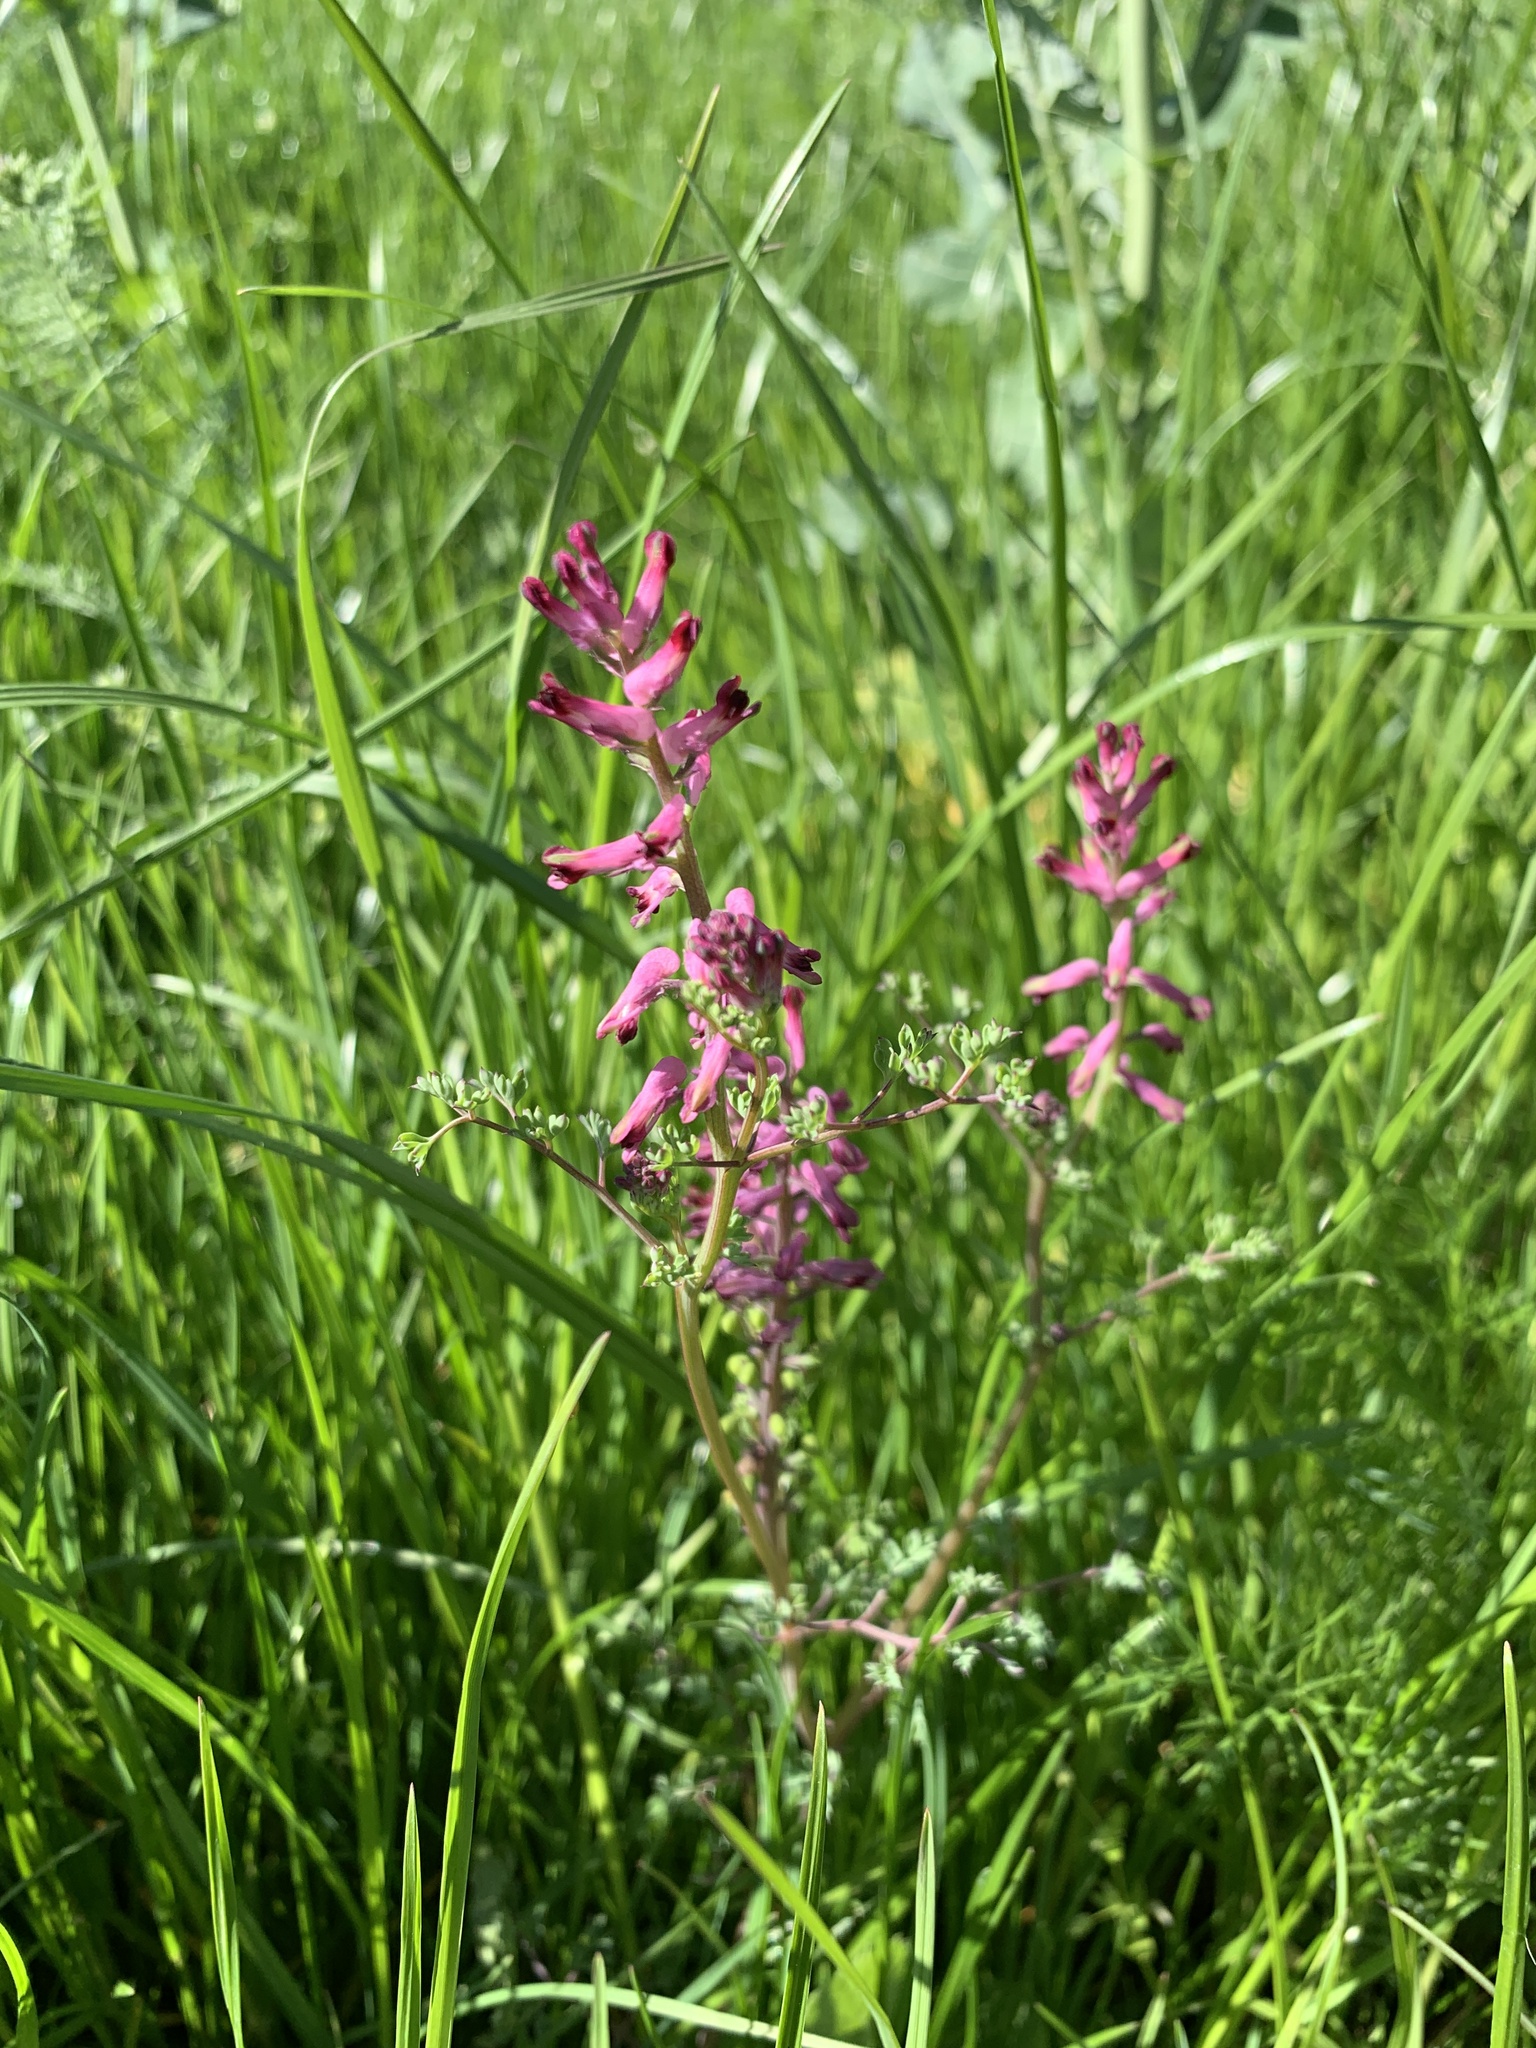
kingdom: Plantae
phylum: Tracheophyta
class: Magnoliopsida
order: Ranunculales
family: Papaveraceae
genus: Fumaria
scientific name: Fumaria officinalis
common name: Common fumitory
